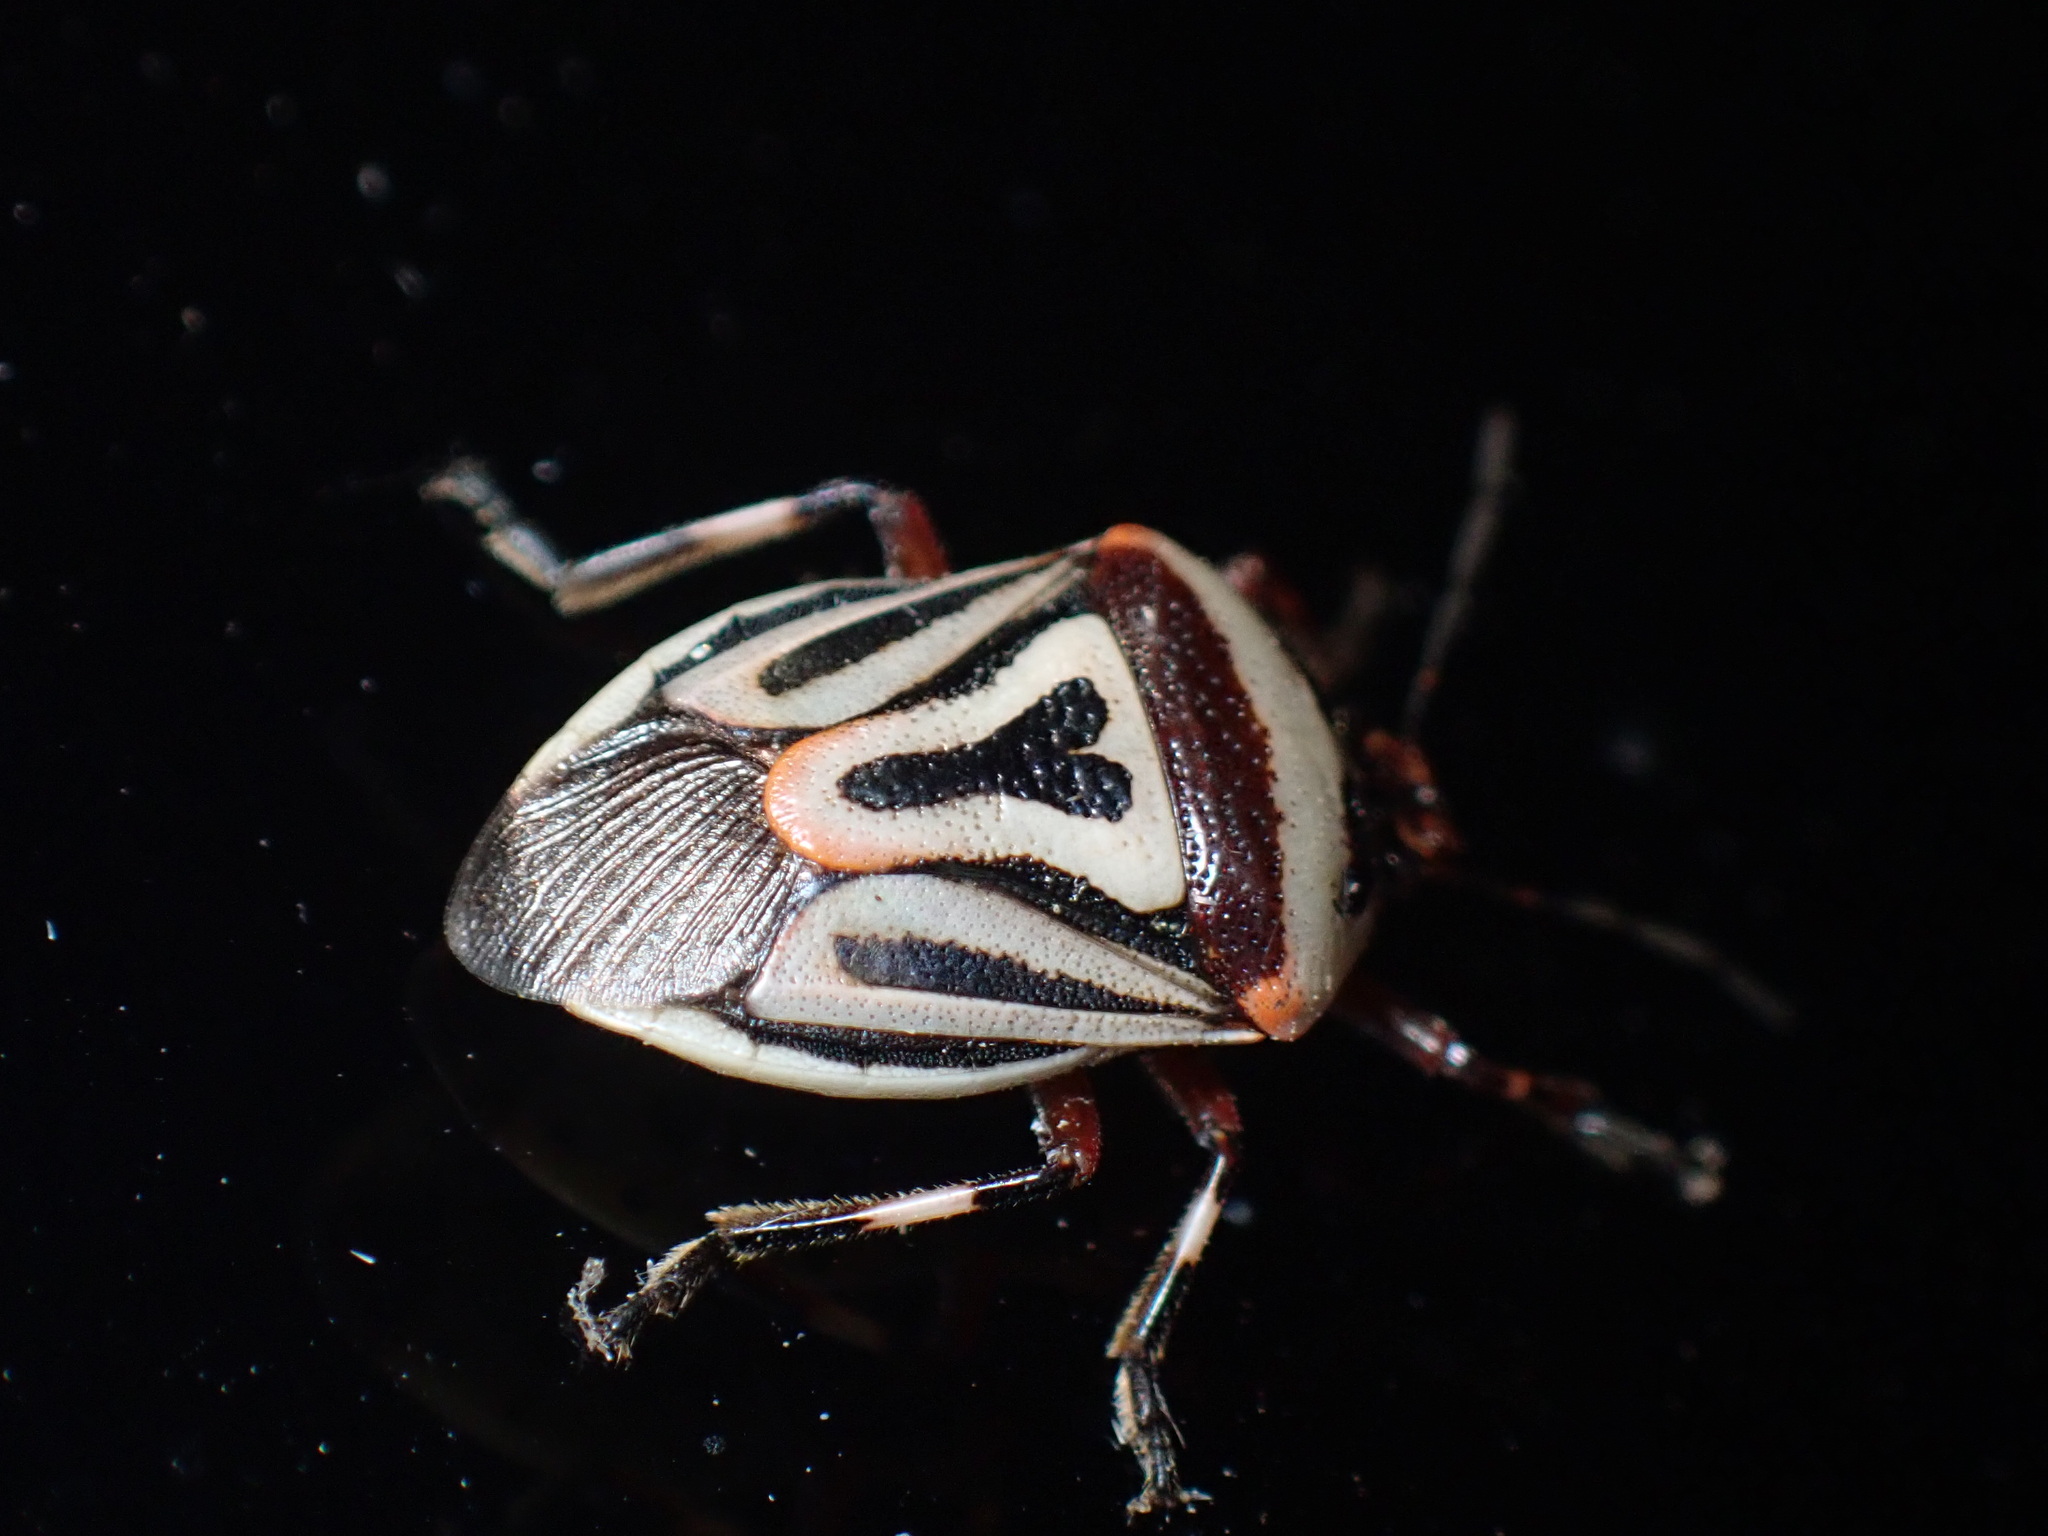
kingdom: Animalia
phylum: Arthropoda
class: Insecta
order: Hemiptera
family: Pentatomidae
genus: Perillus
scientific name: Perillus bioculatus
